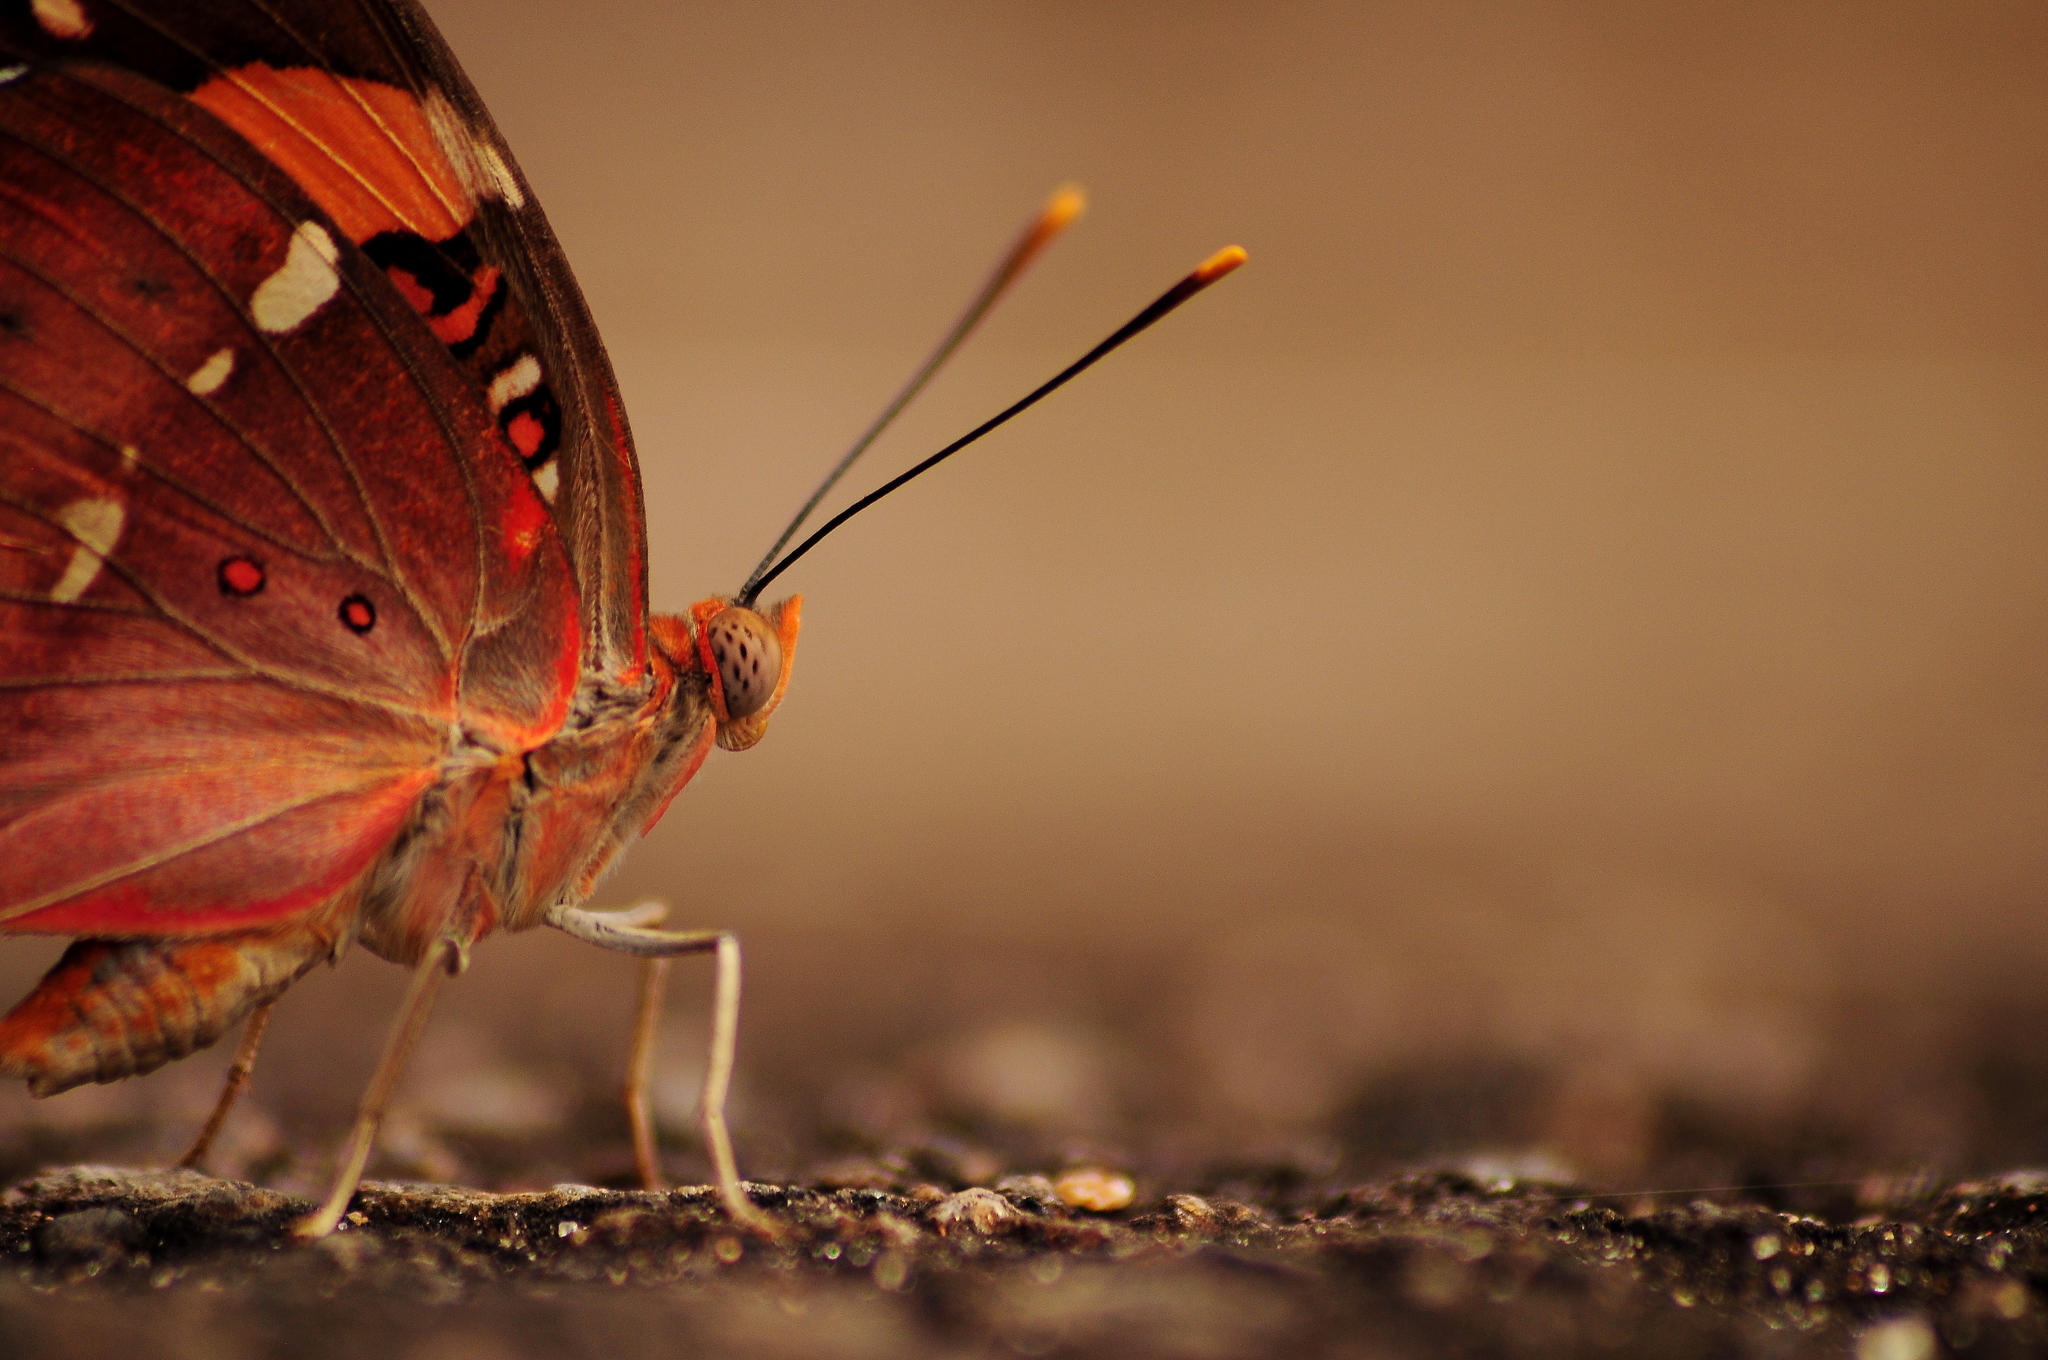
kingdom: Animalia
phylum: Arthropoda
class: Insecta
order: Lepidoptera
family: Nymphalidae
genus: Euthalia
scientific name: Euthalia nais
